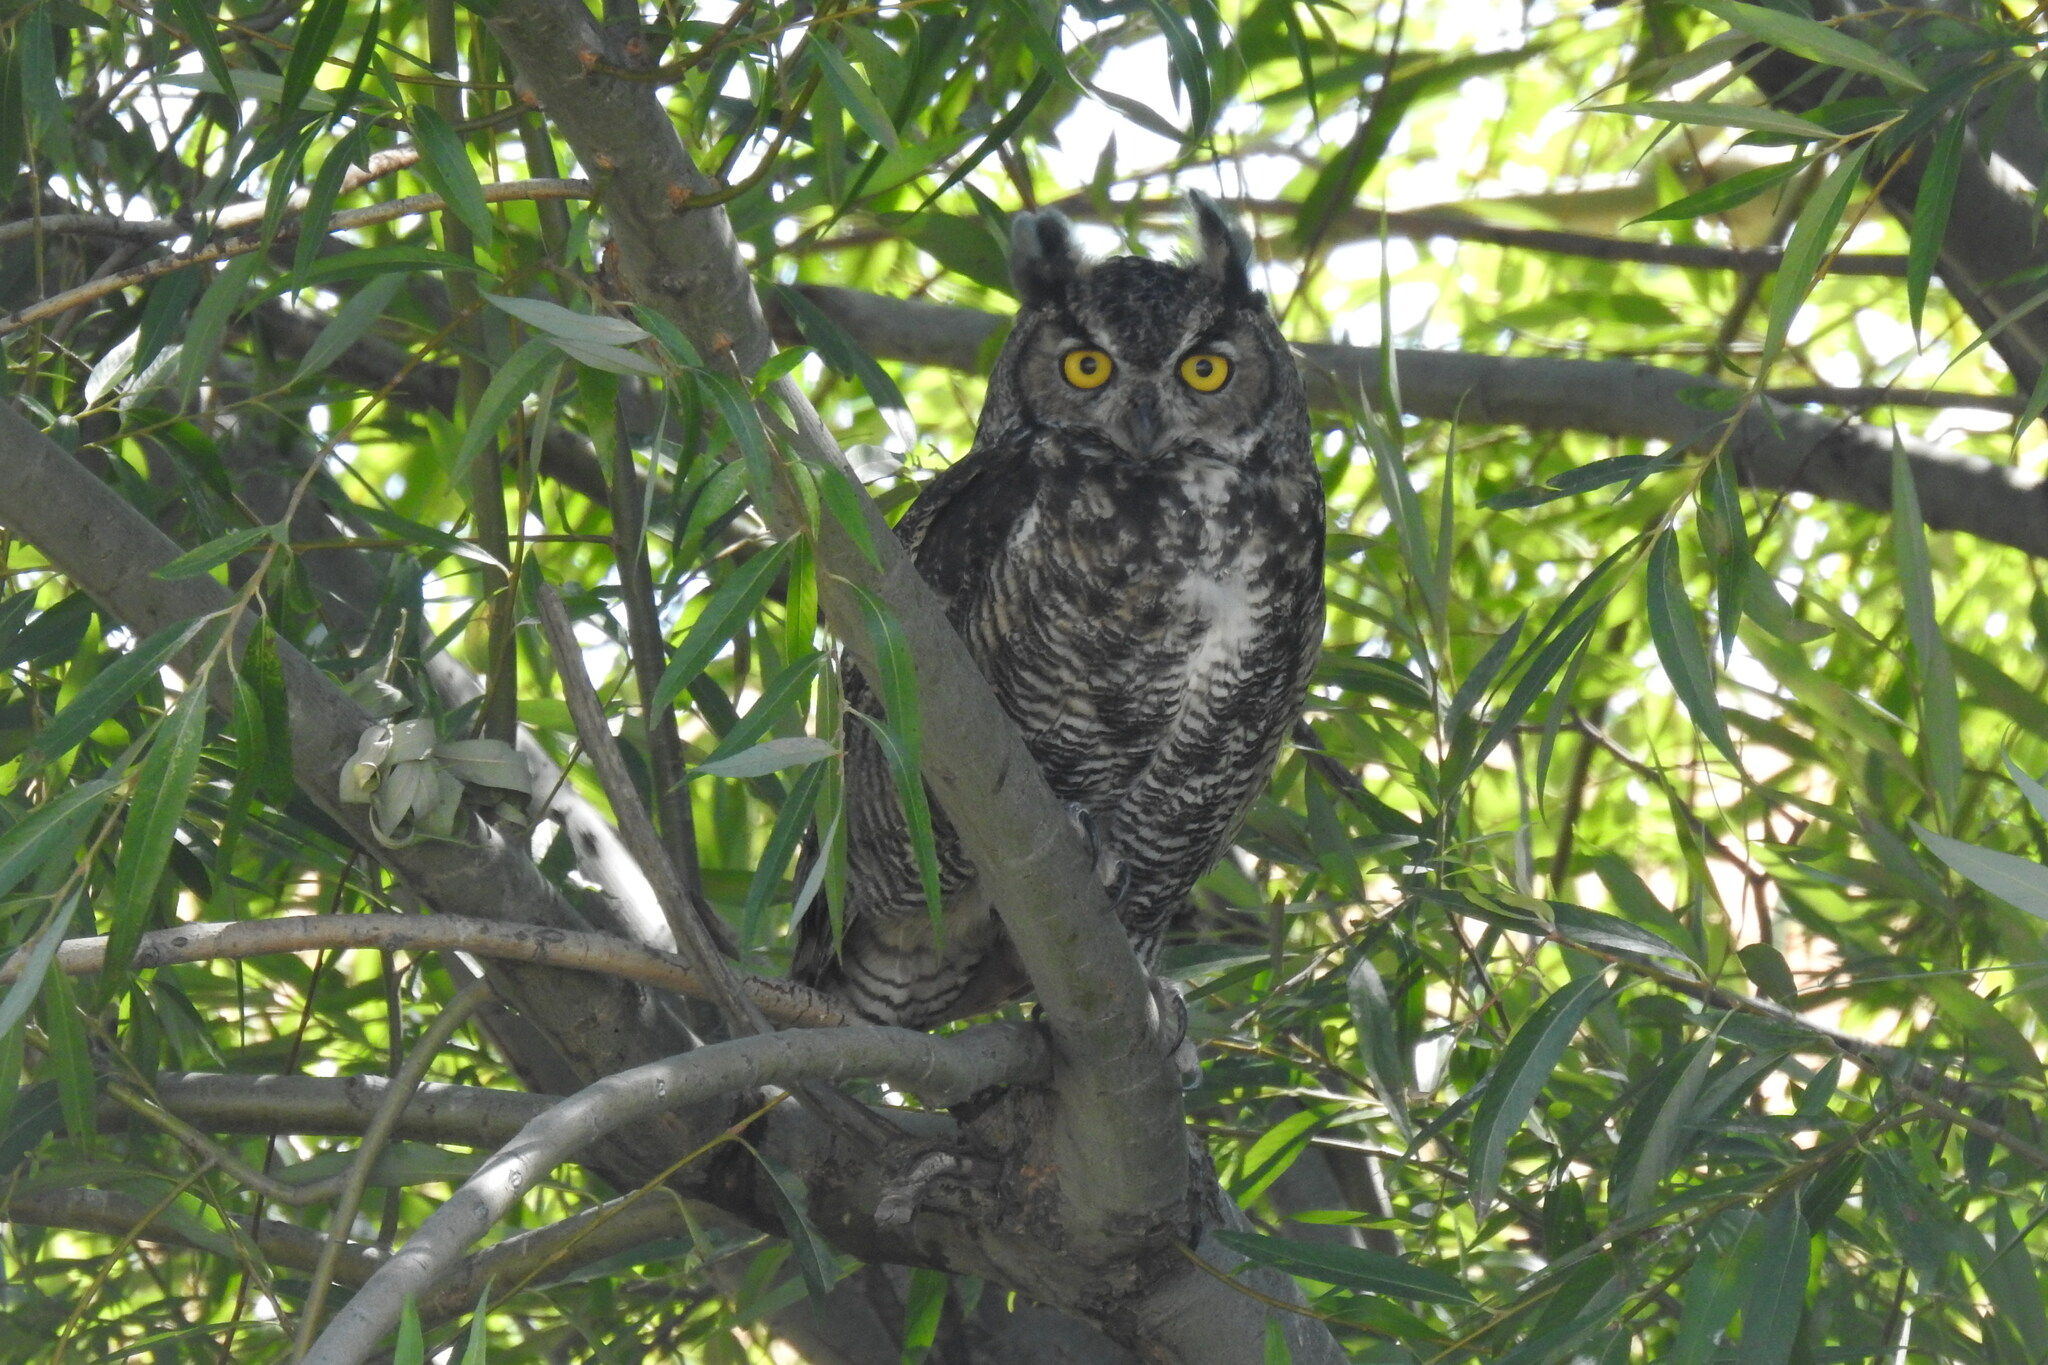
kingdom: Animalia
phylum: Chordata
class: Aves
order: Strigiformes
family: Strigidae
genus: Bubo
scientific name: Bubo virginianus
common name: Great horned owl
